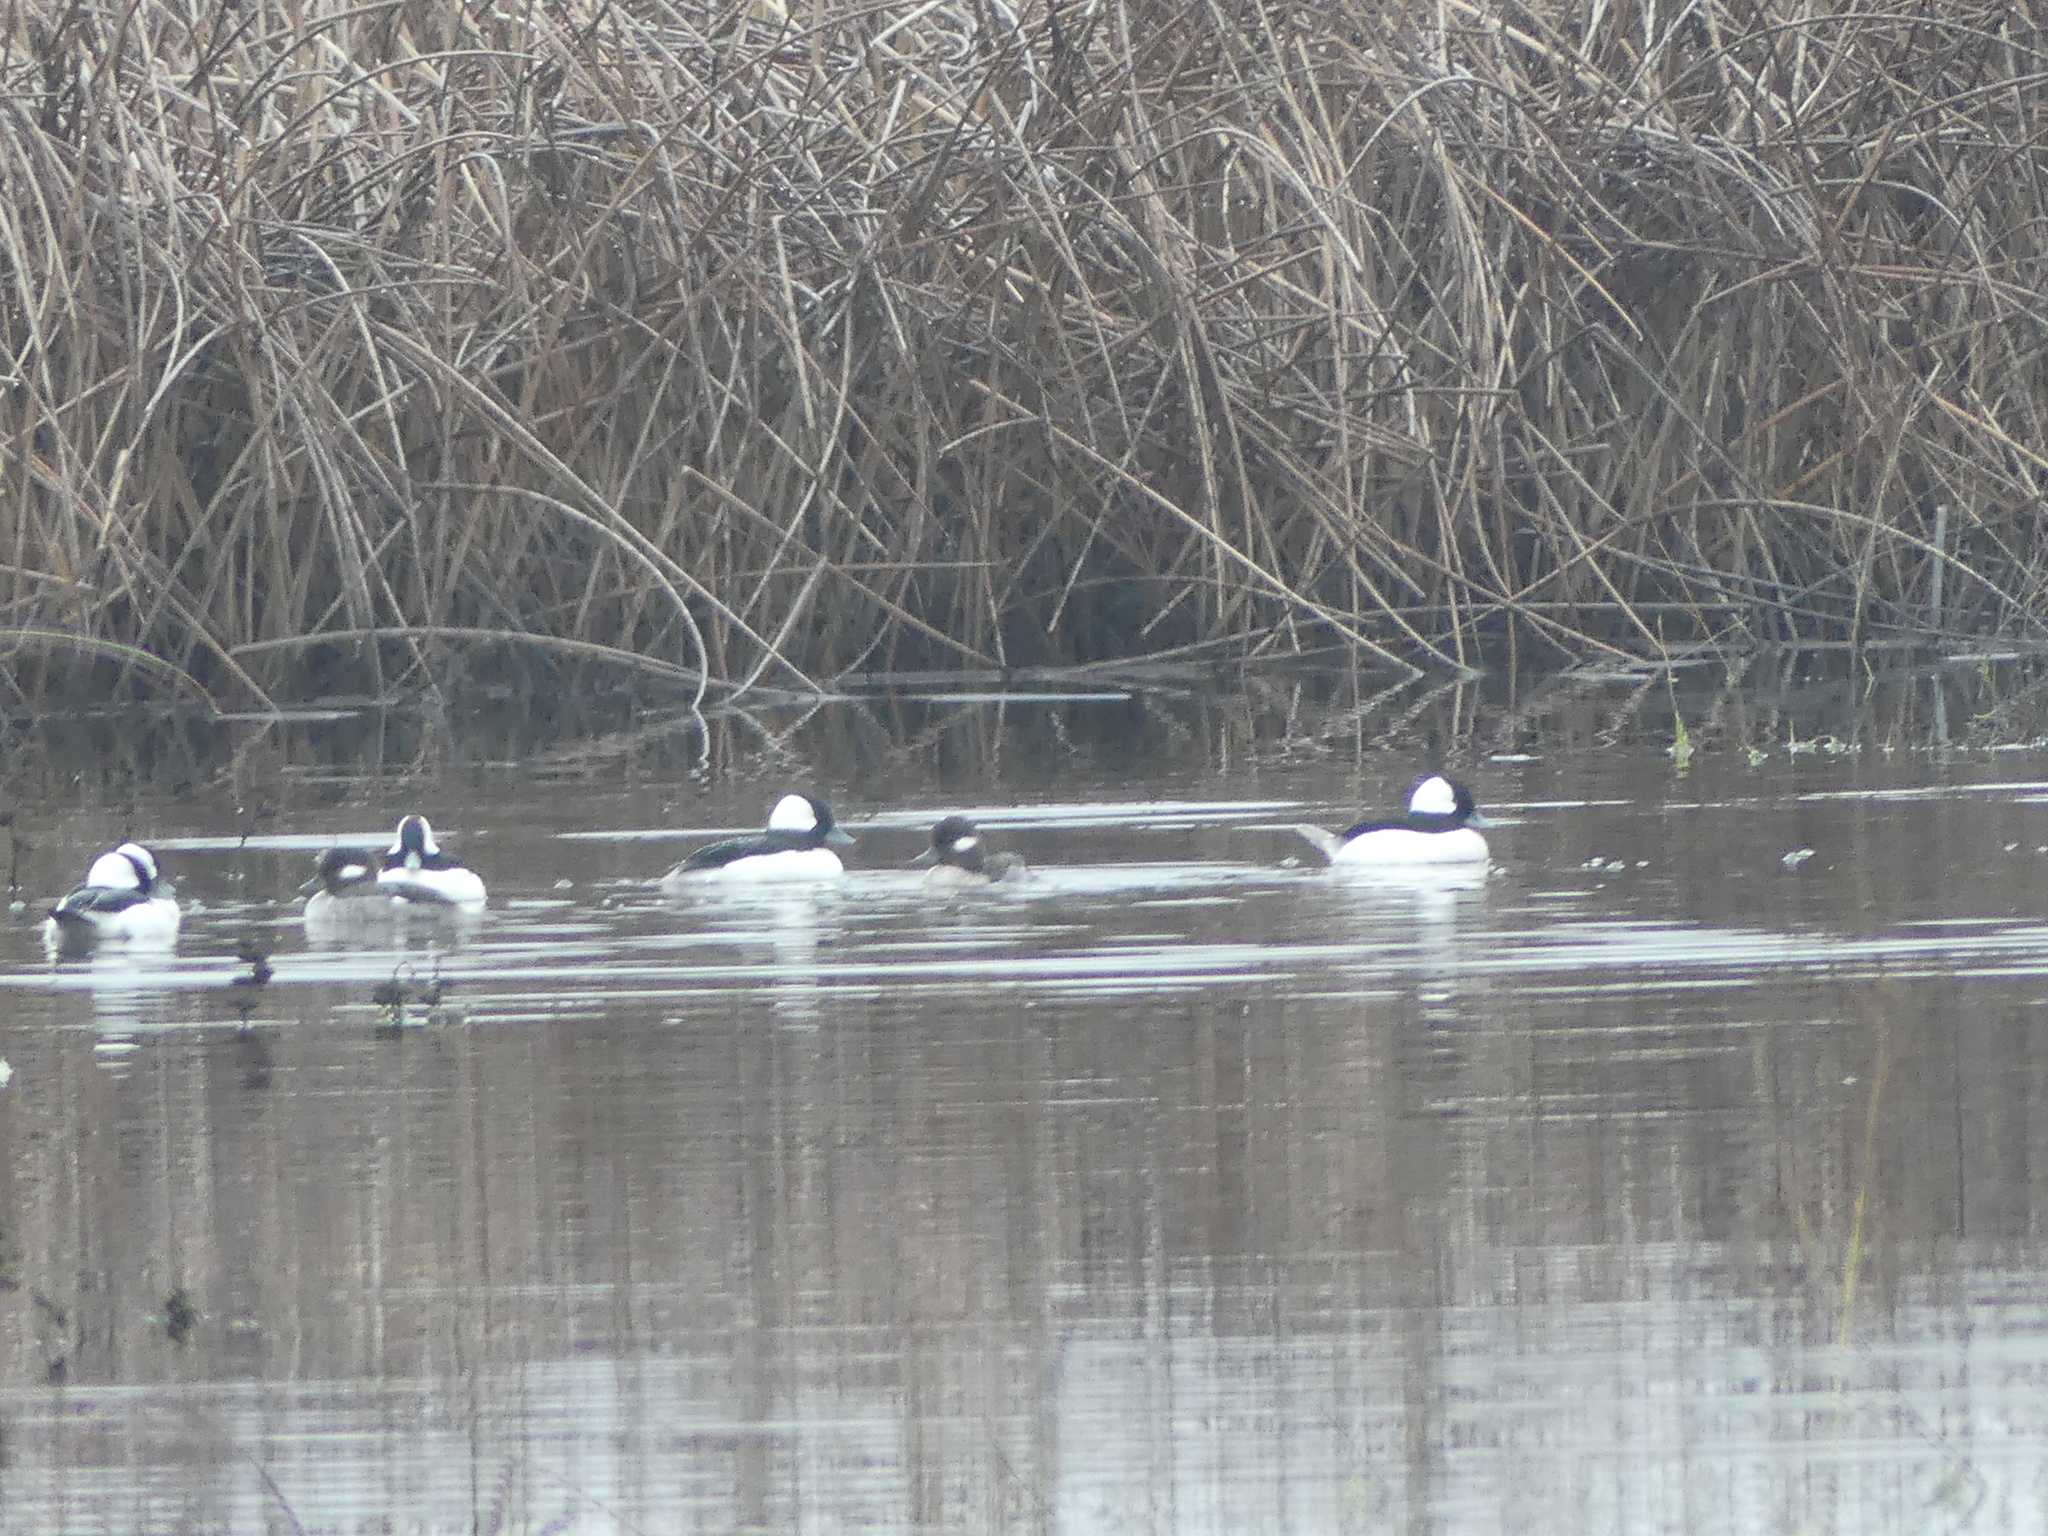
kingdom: Animalia
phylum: Chordata
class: Aves
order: Anseriformes
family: Anatidae
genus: Bucephala
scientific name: Bucephala albeola
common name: Bufflehead
